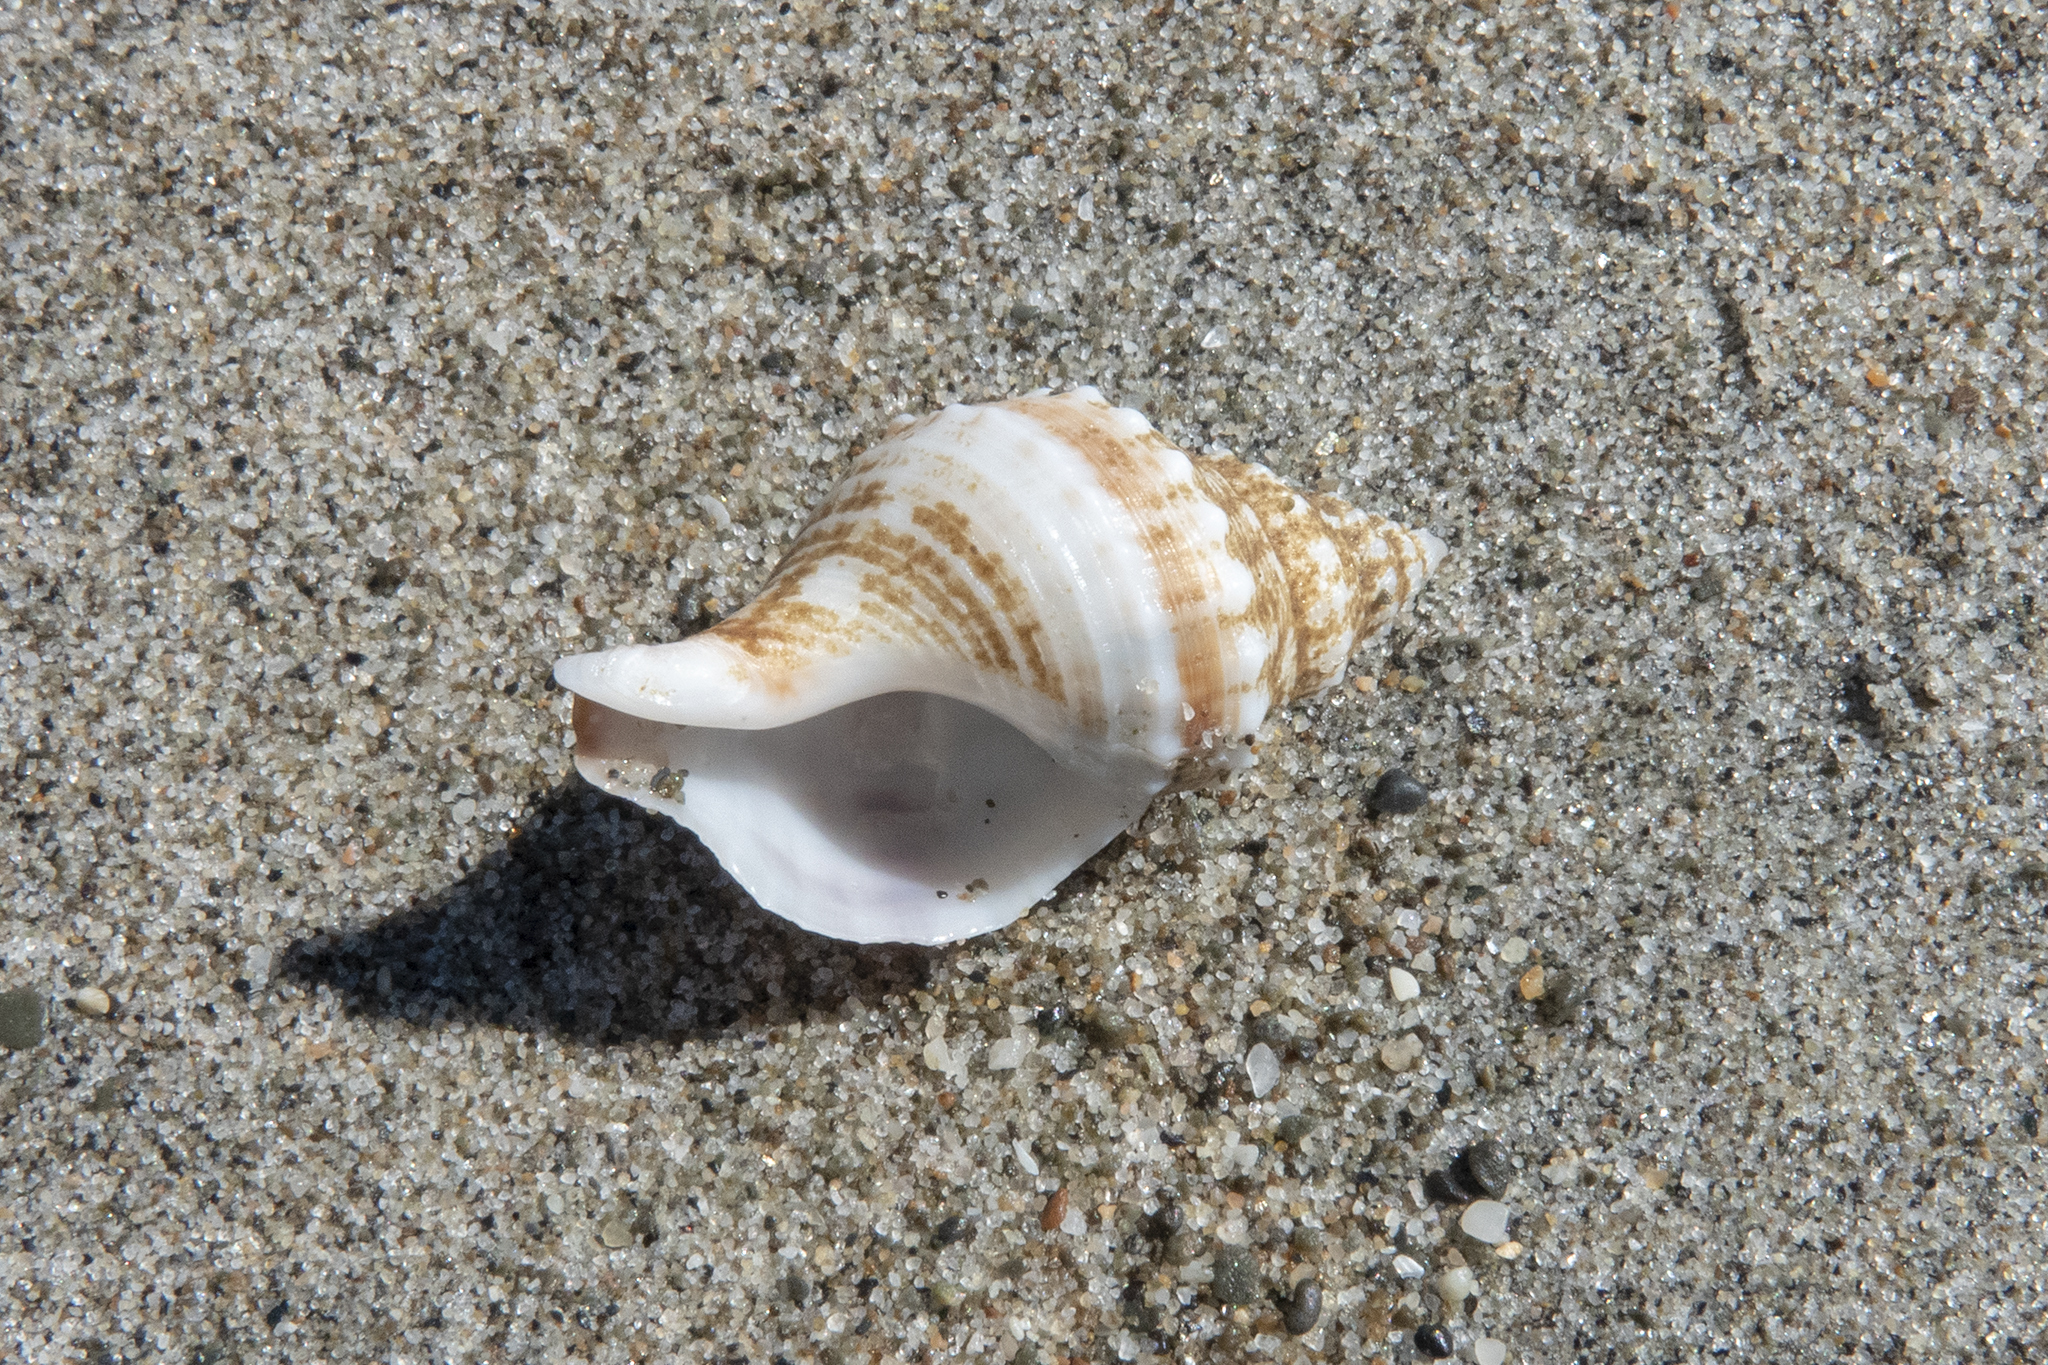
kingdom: Animalia
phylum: Mollusca
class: Gastropoda
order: Neogastropoda
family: Prosiphonidae
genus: Austrofusus
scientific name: Austrofusus glans
